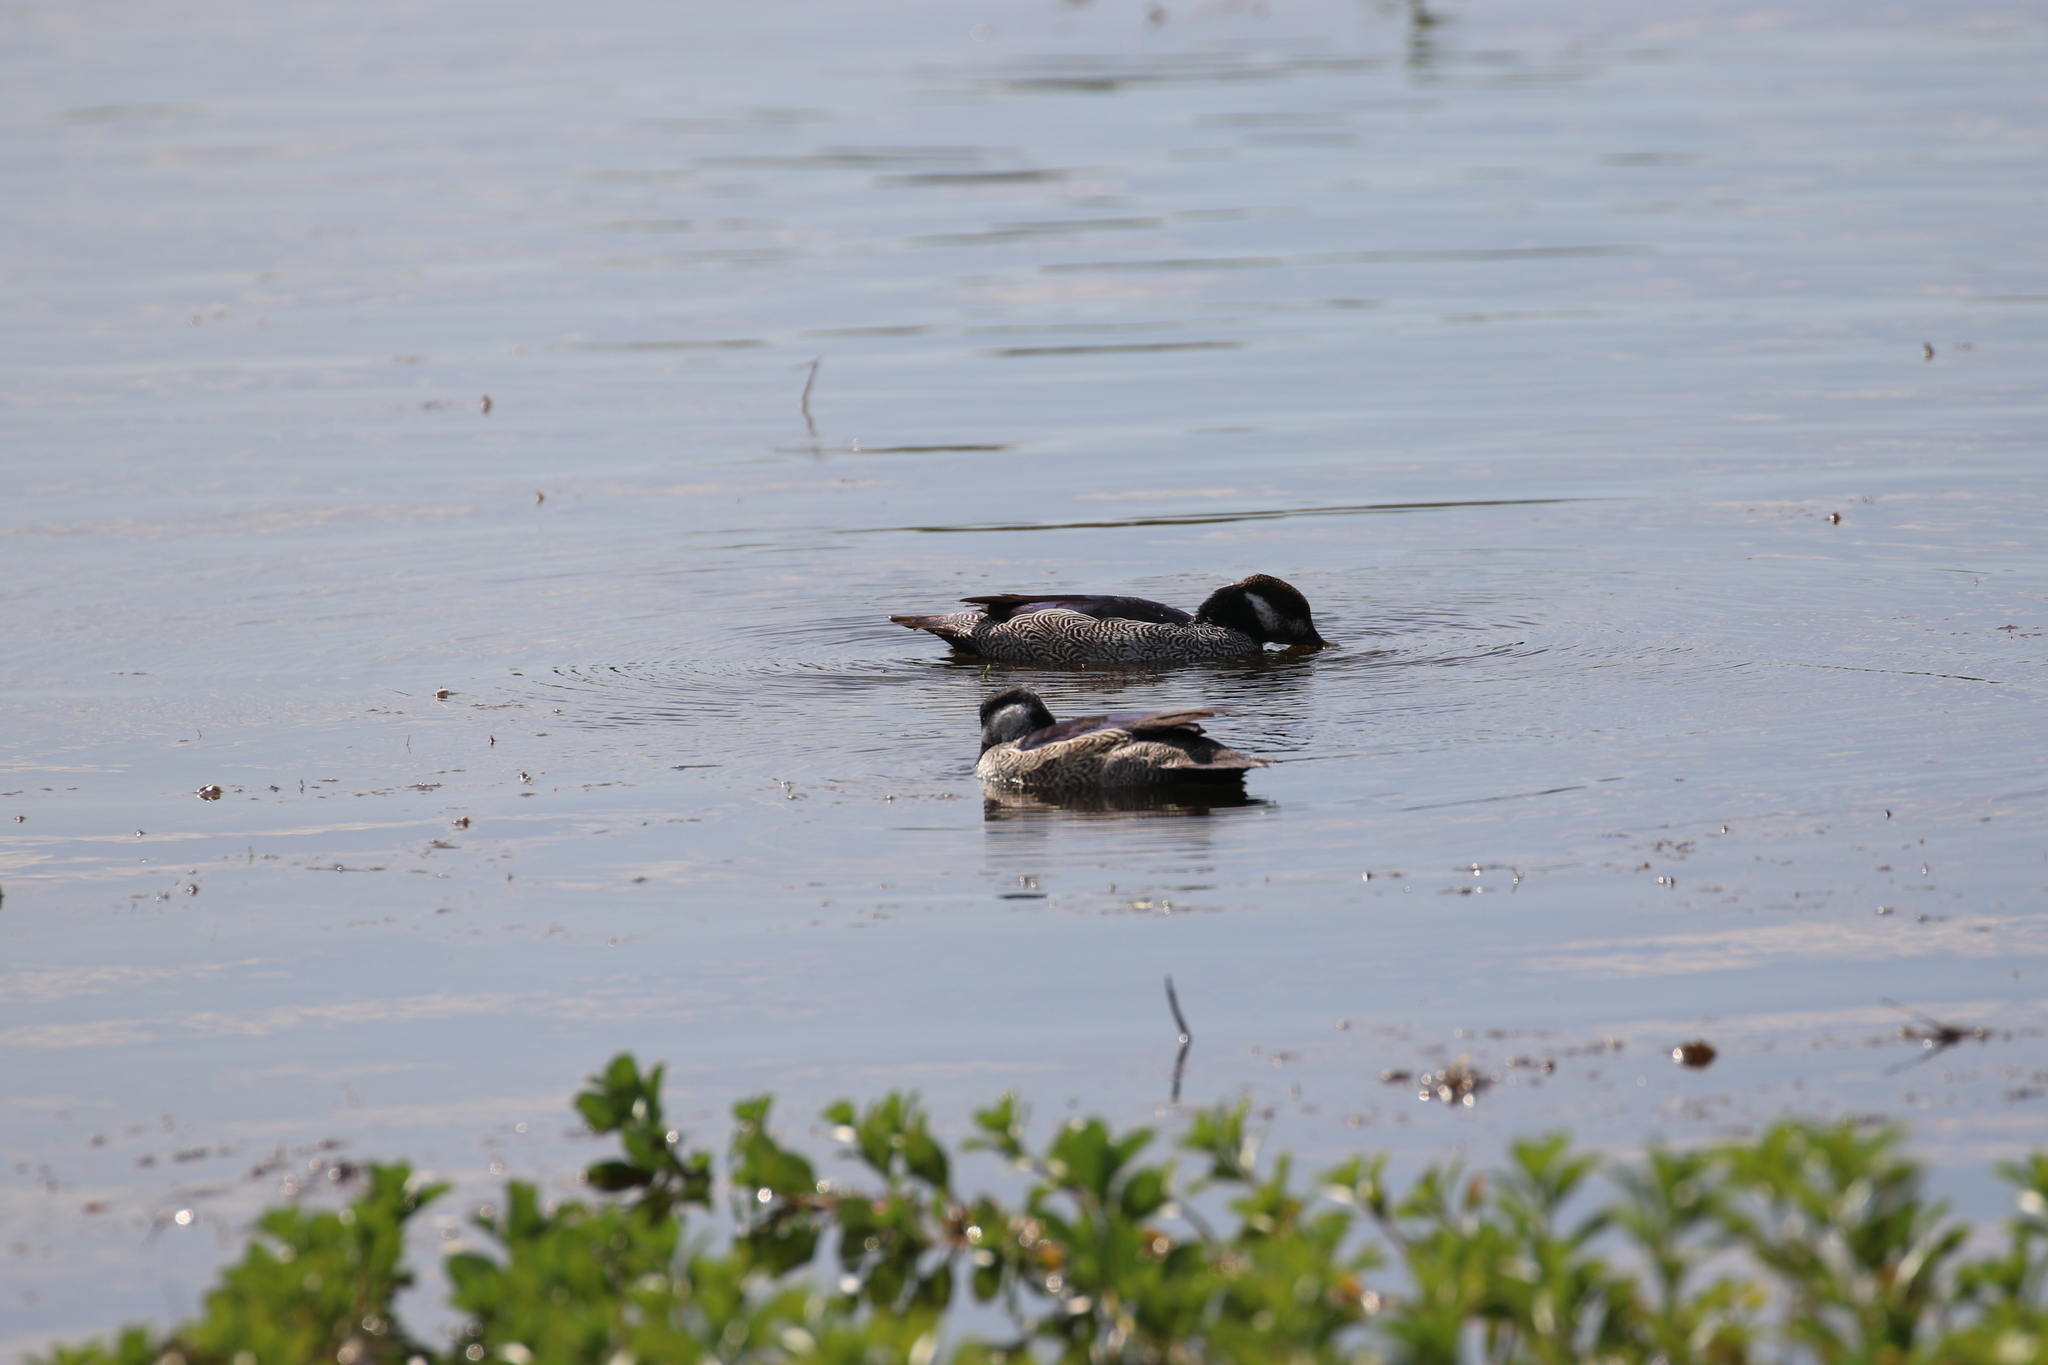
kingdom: Animalia
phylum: Chordata
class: Aves
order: Anseriformes
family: Anatidae
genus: Nettapus
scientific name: Nettapus pulchellus
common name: Green pygmy-goose
